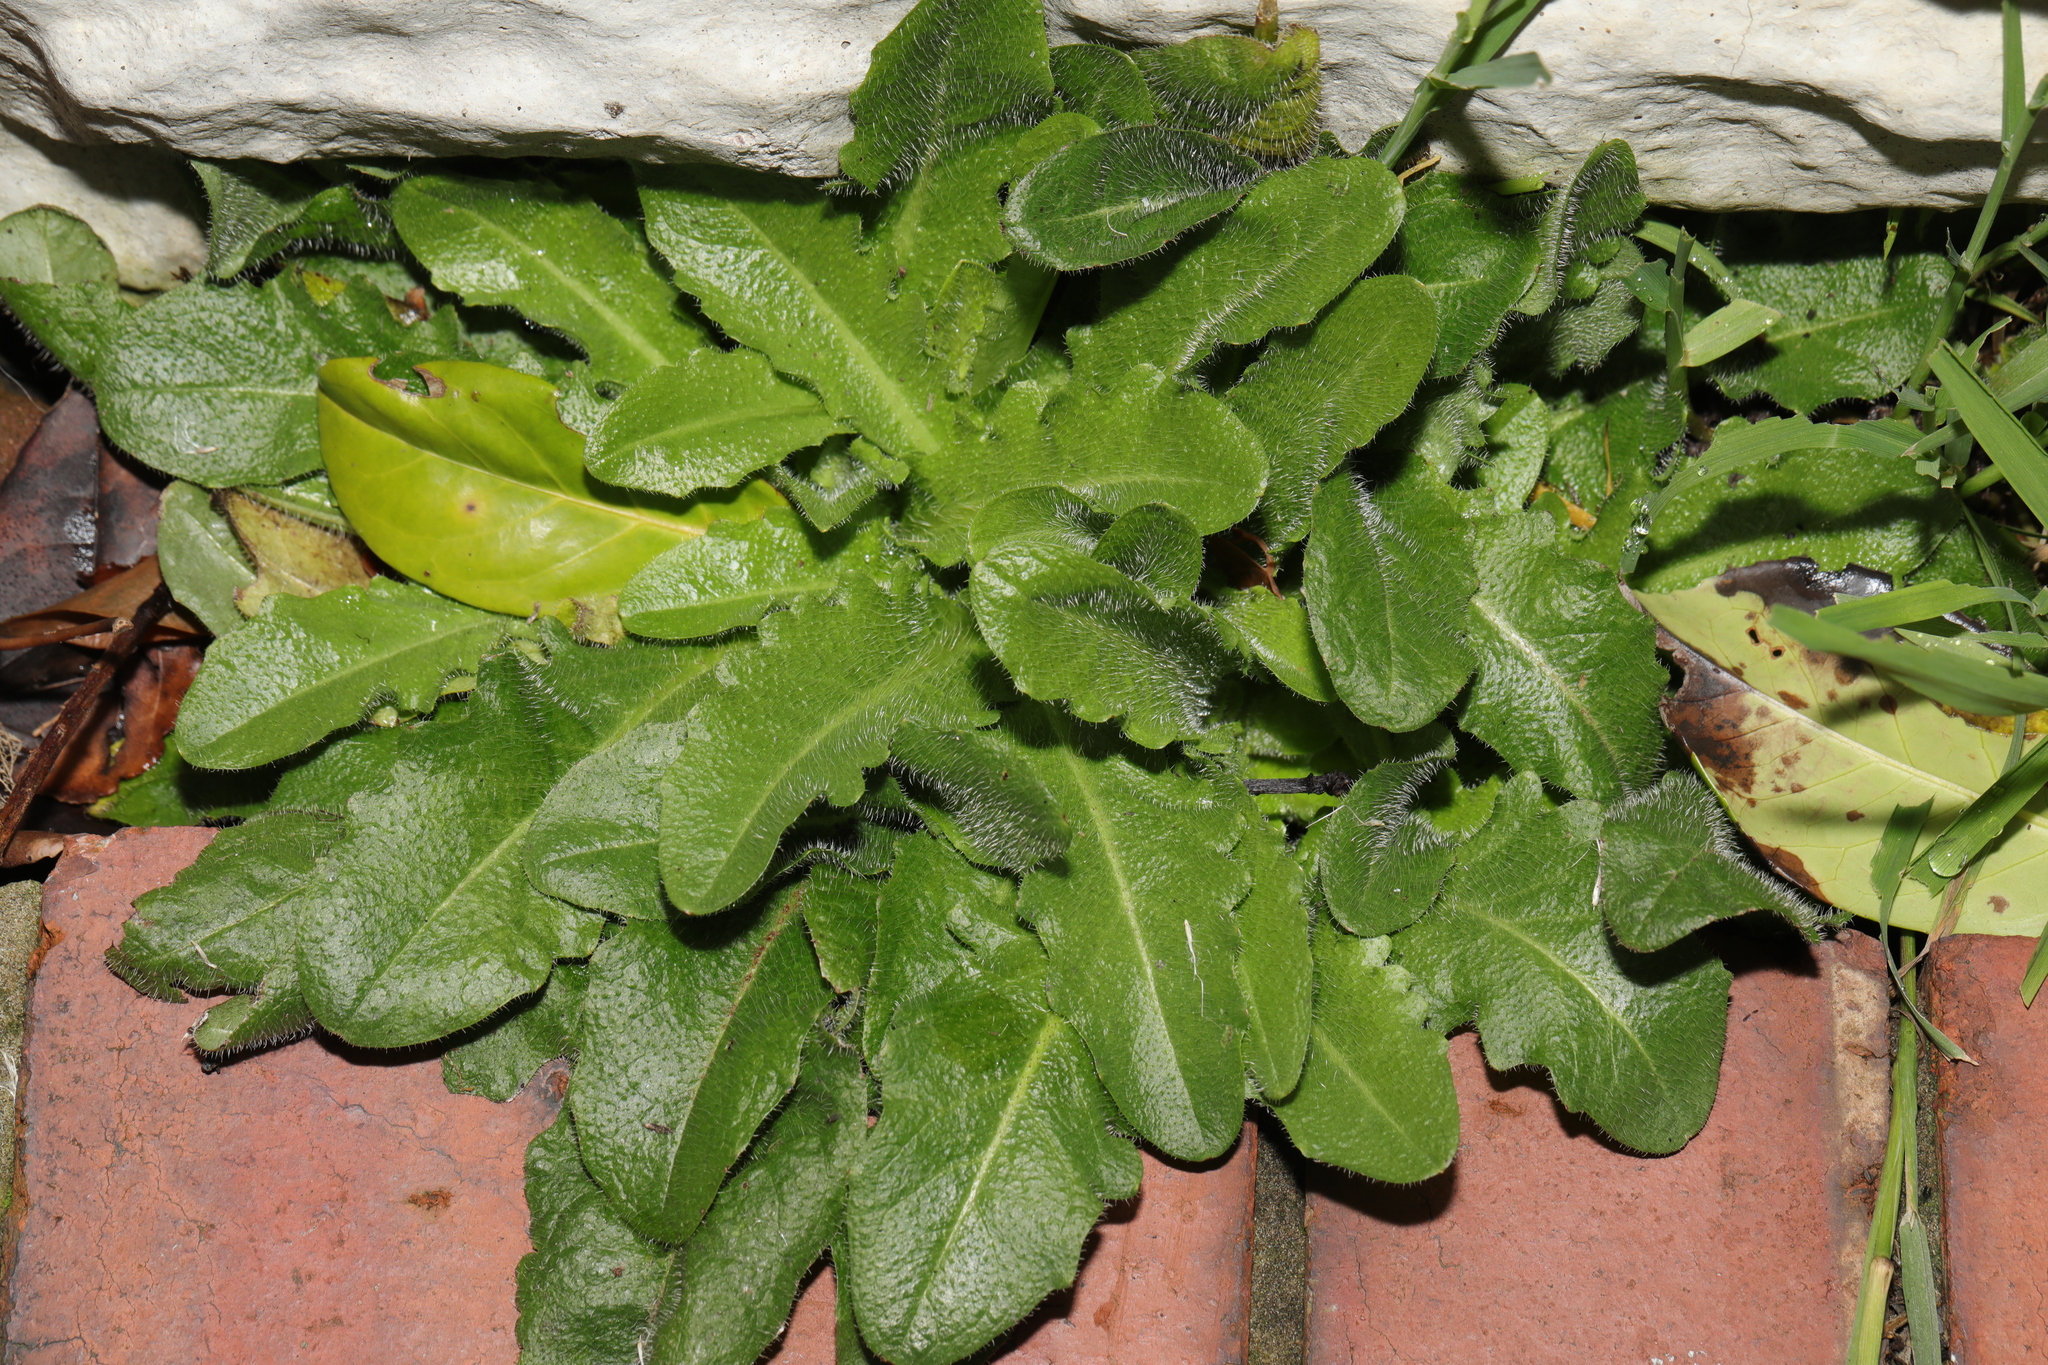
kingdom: Plantae
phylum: Tracheophyta
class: Magnoliopsida
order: Asterales
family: Asteraceae
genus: Hypochaeris
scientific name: Hypochaeris radicata
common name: Flatweed
